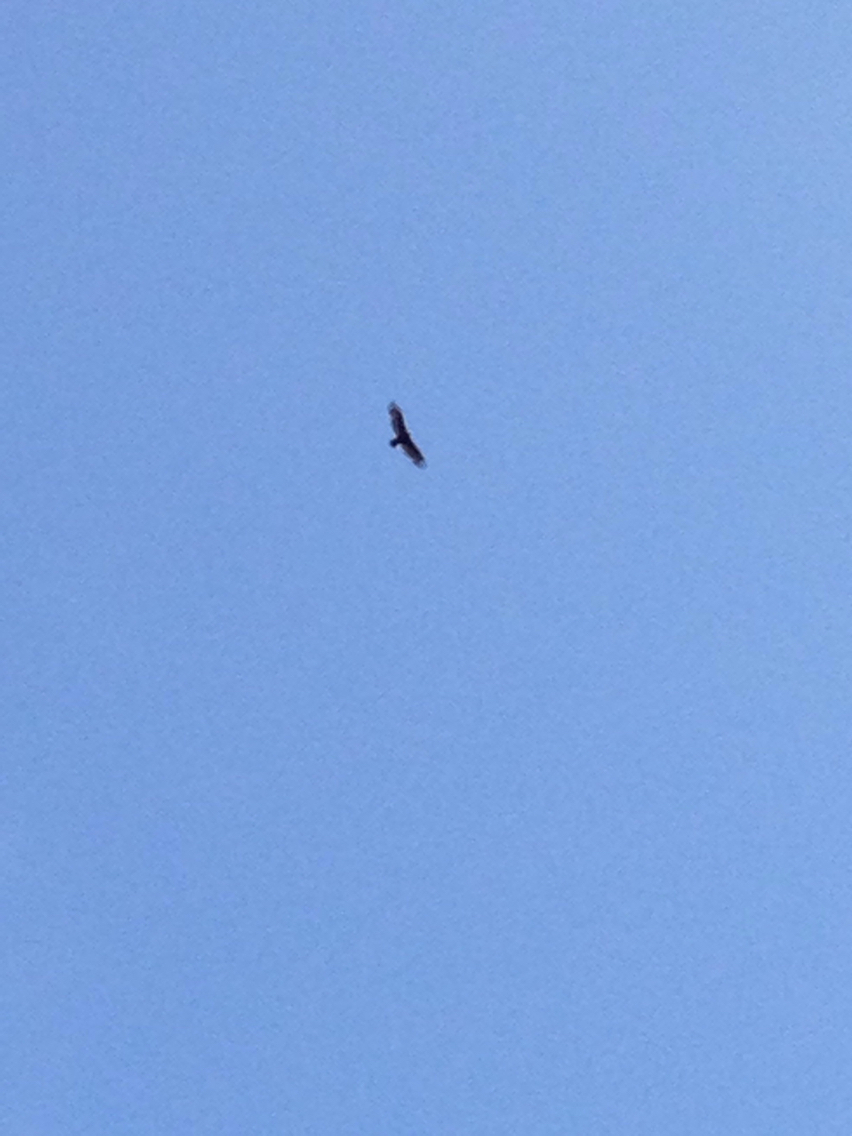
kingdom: Animalia
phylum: Chordata
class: Aves
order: Accipitriformes
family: Cathartidae
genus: Cathartes
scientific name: Cathartes aura
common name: Turkey vulture
